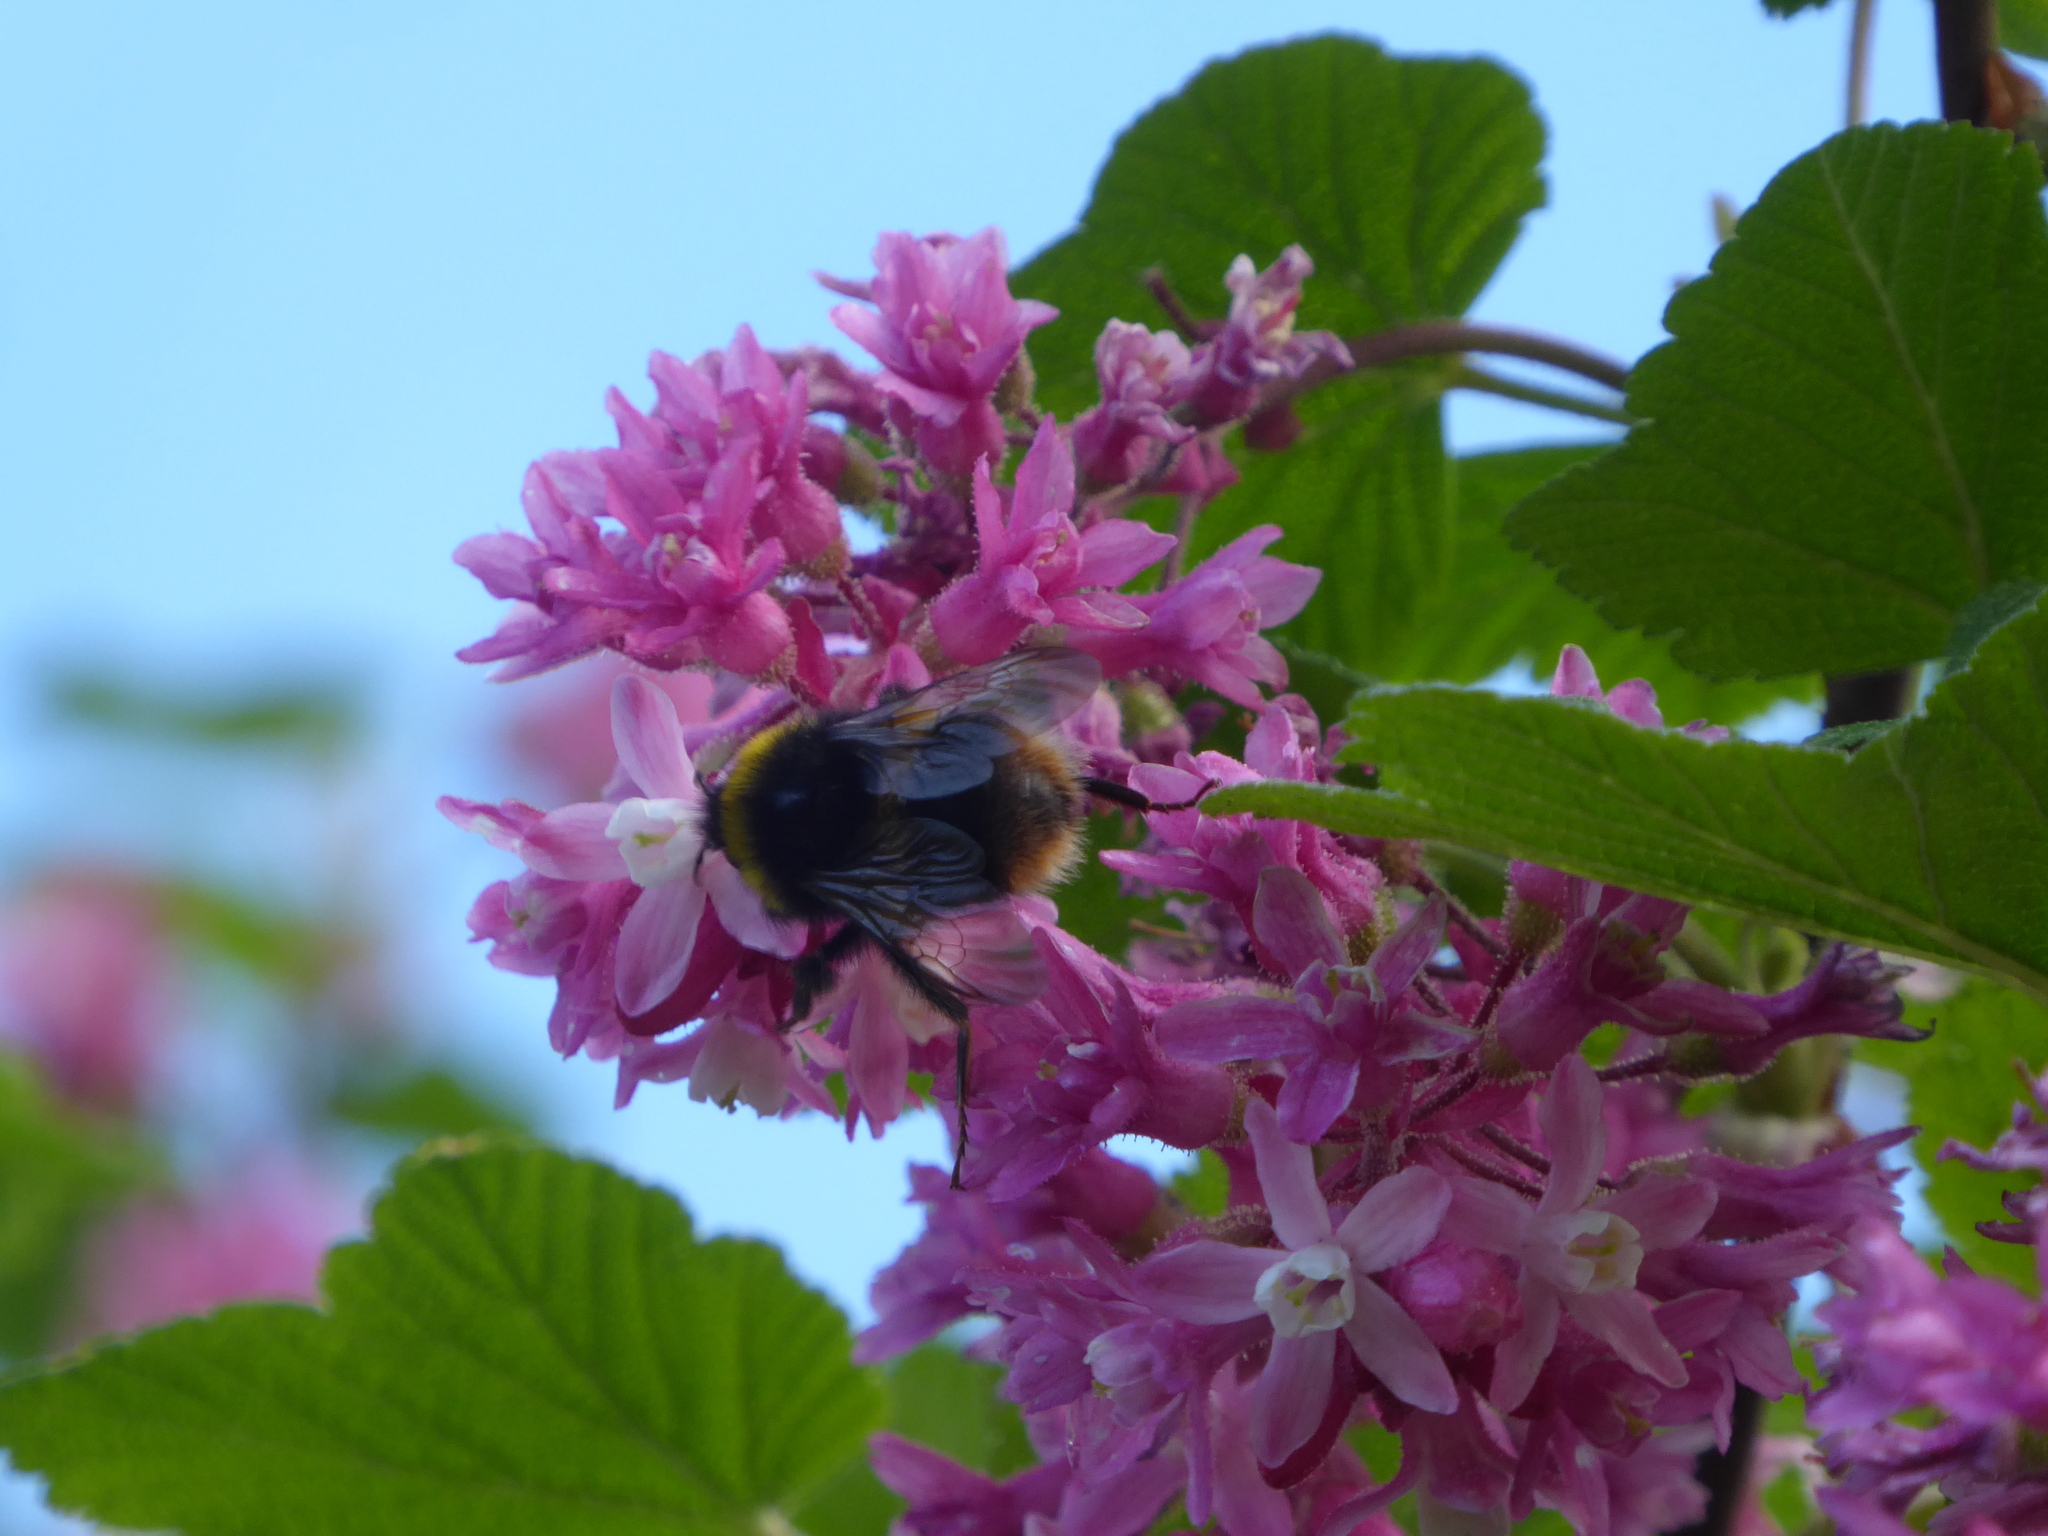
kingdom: Animalia
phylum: Arthropoda
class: Insecta
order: Hymenoptera
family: Apidae
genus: Bombus
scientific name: Bombus pratorum
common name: Early humble-bee
